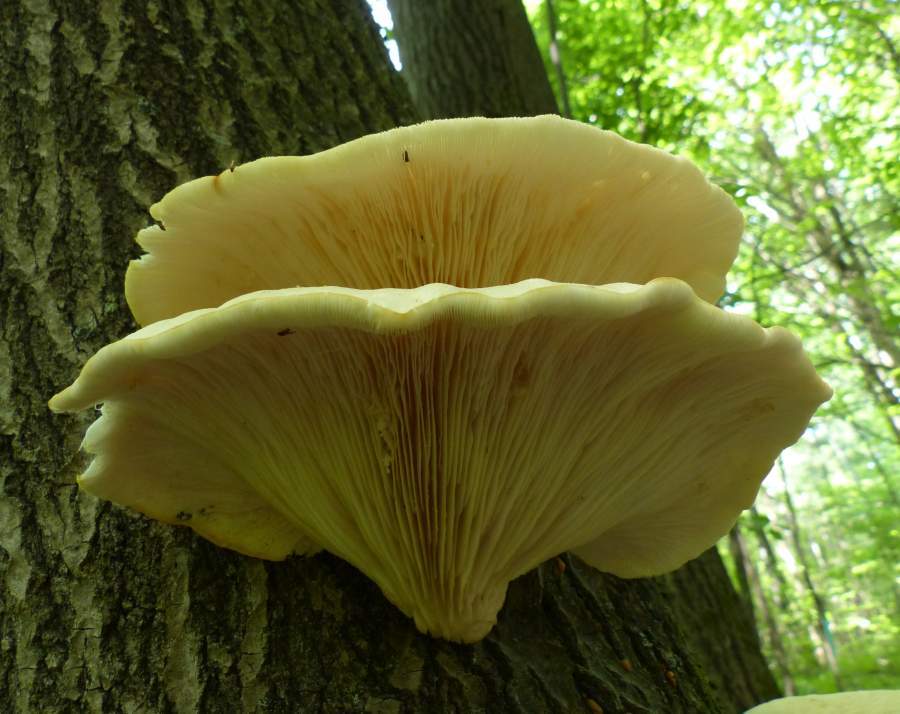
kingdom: Fungi
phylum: Basidiomycota
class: Agaricomycetes
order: Agaricales
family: Pleurotaceae
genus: Pleurotus
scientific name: Pleurotus ostreatus
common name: Oyster mushroom
